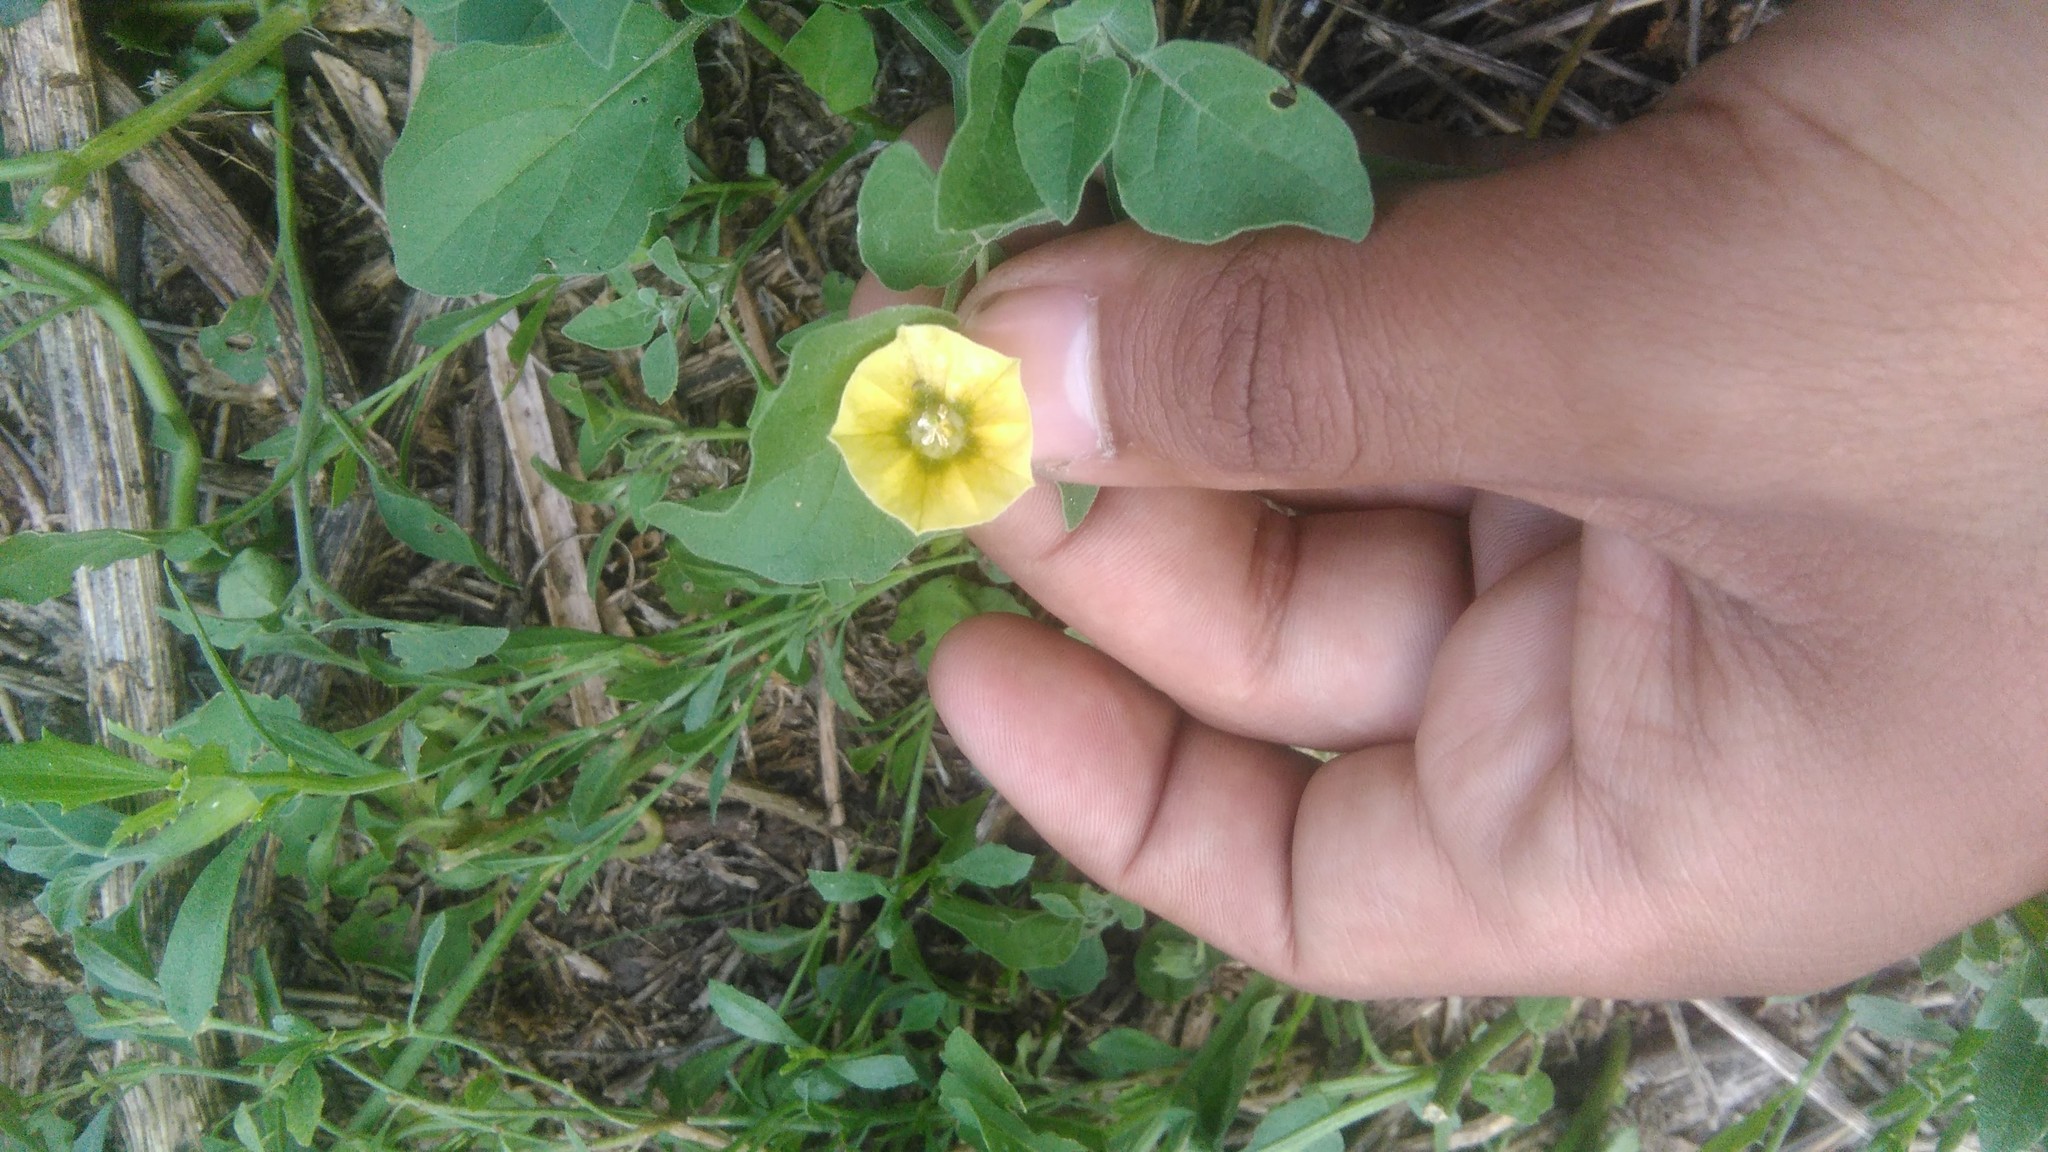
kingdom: Plantae
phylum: Tracheophyta
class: Magnoliopsida
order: Solanales
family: Solanaceae
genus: Physalis
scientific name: Physalis viscosa
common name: Stellate ground-cherry
